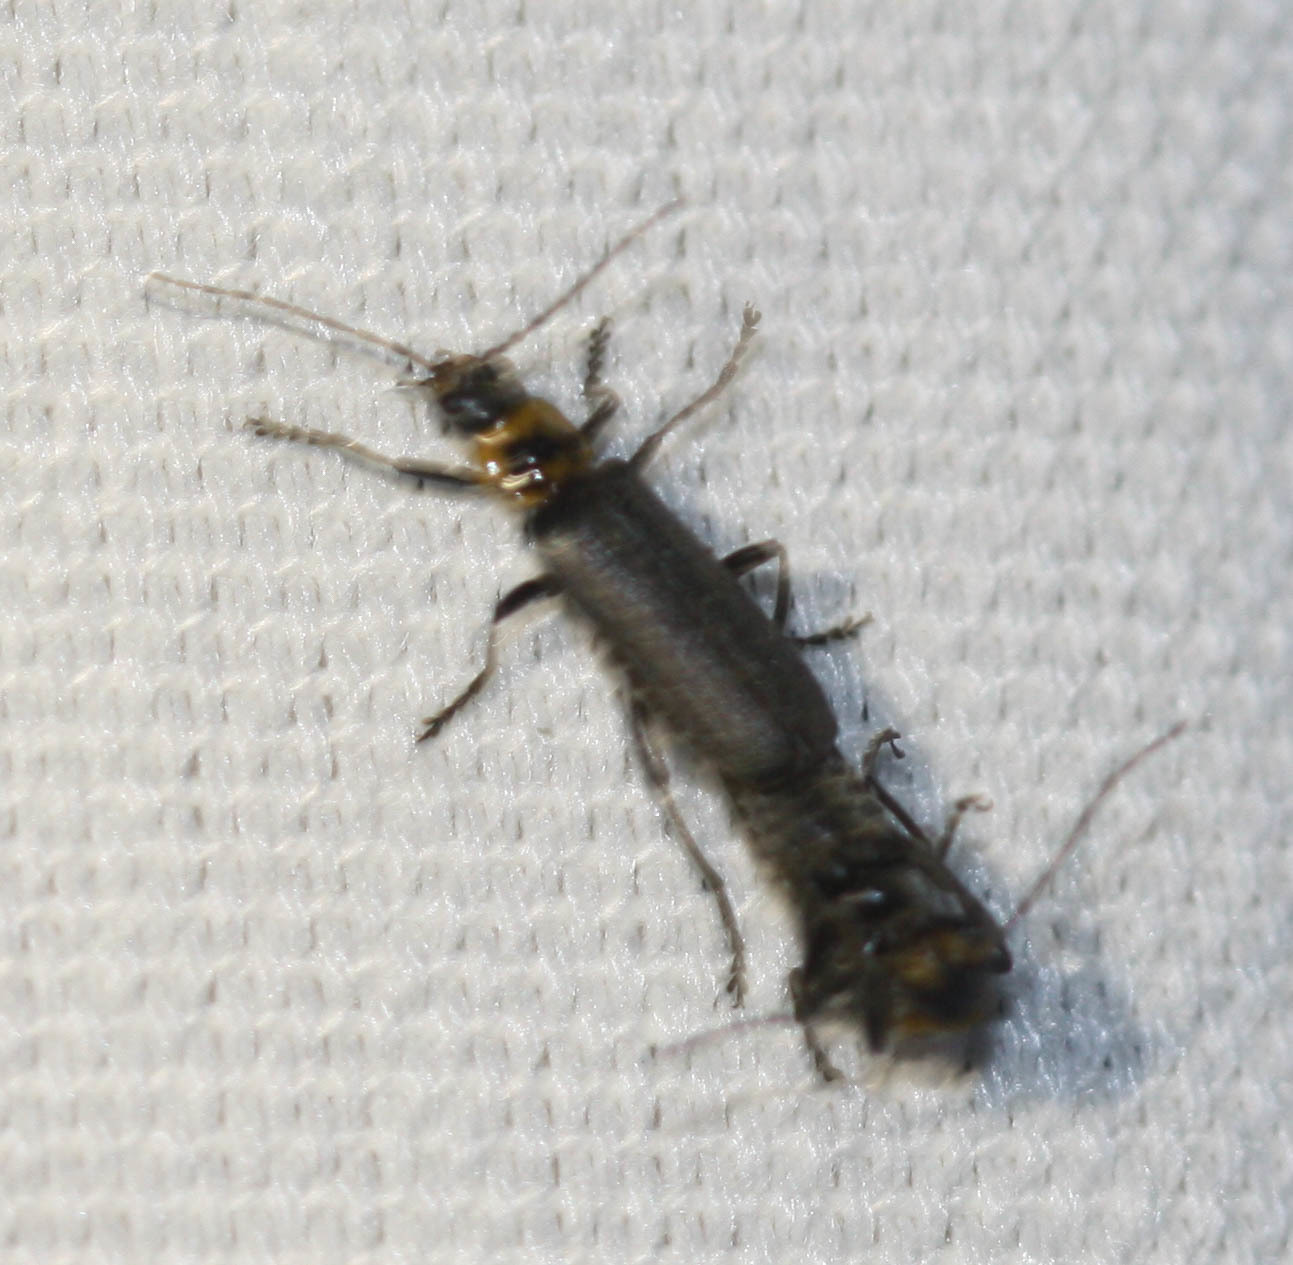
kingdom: Animalia
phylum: Arthropoda
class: Insecta
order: Coleoptera
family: Cantharidae
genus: Cyrtomoptera
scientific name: Cyrtomoptera divisa
